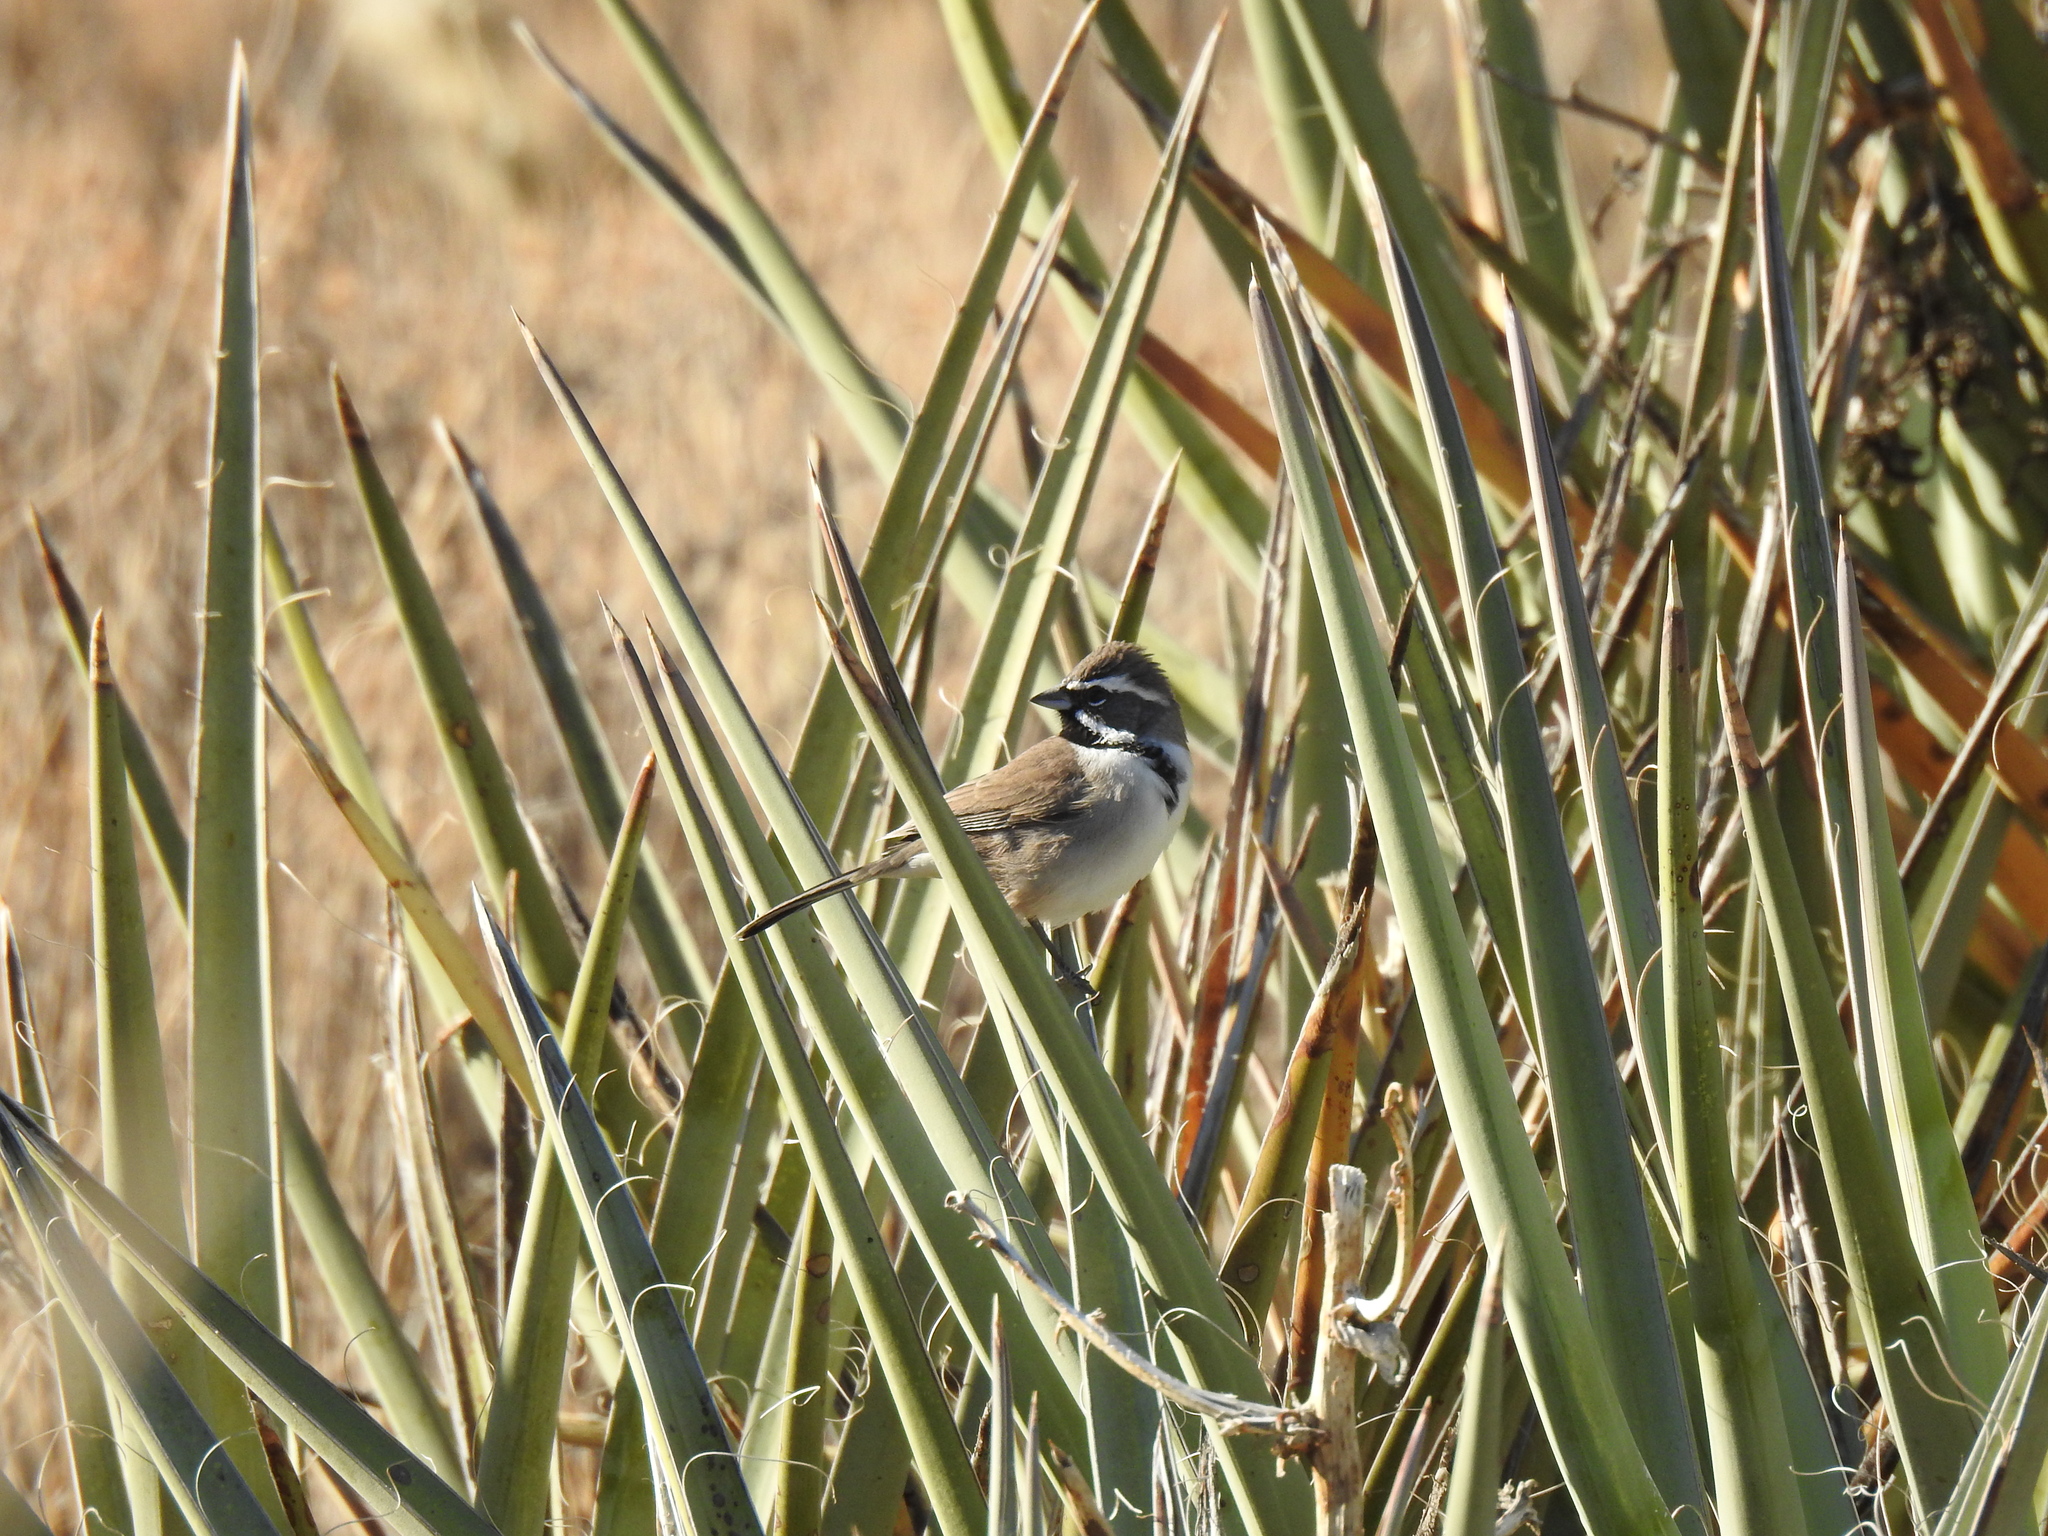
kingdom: Animalia
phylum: Chordata
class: Aves
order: Passeriformes
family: Passerellidae
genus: Amphispiza
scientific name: Amphispiza bilineata
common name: Black-throated sparrow
